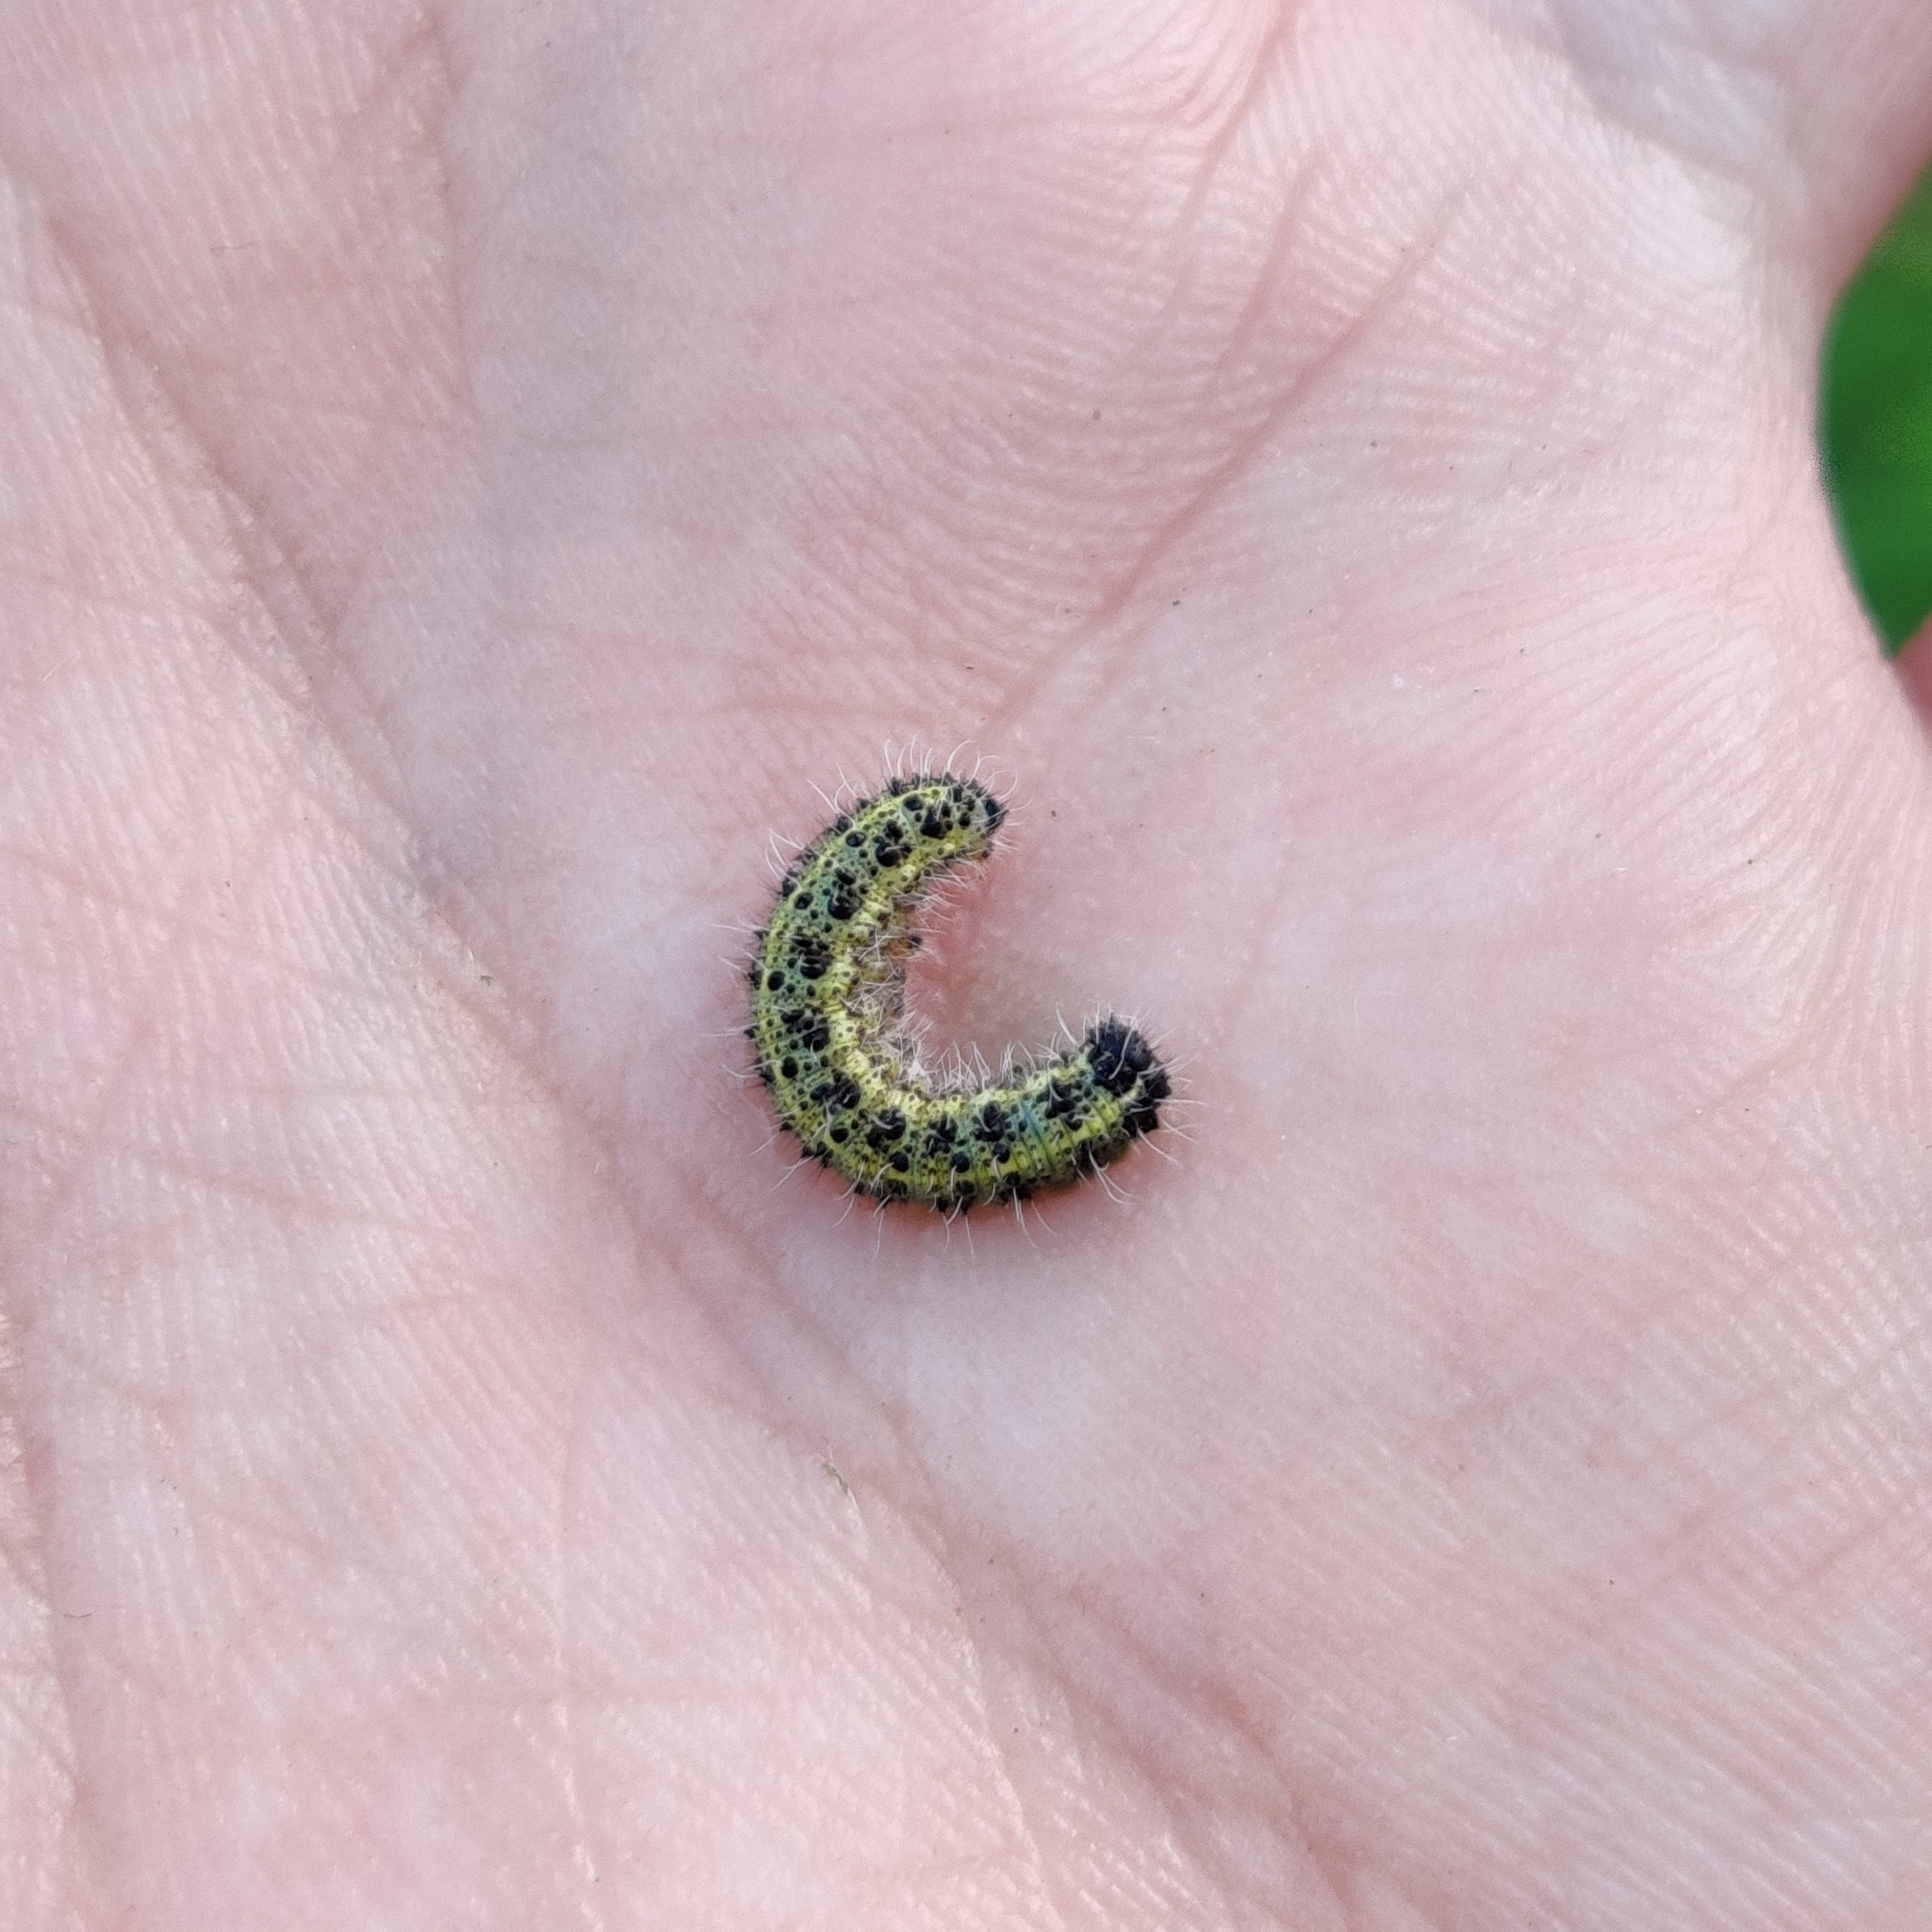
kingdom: Animalia
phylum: Arthropoda
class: Insecta
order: Lepidoptera
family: Pieridae
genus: Pieris
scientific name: Pieris brassicae
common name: Large white
